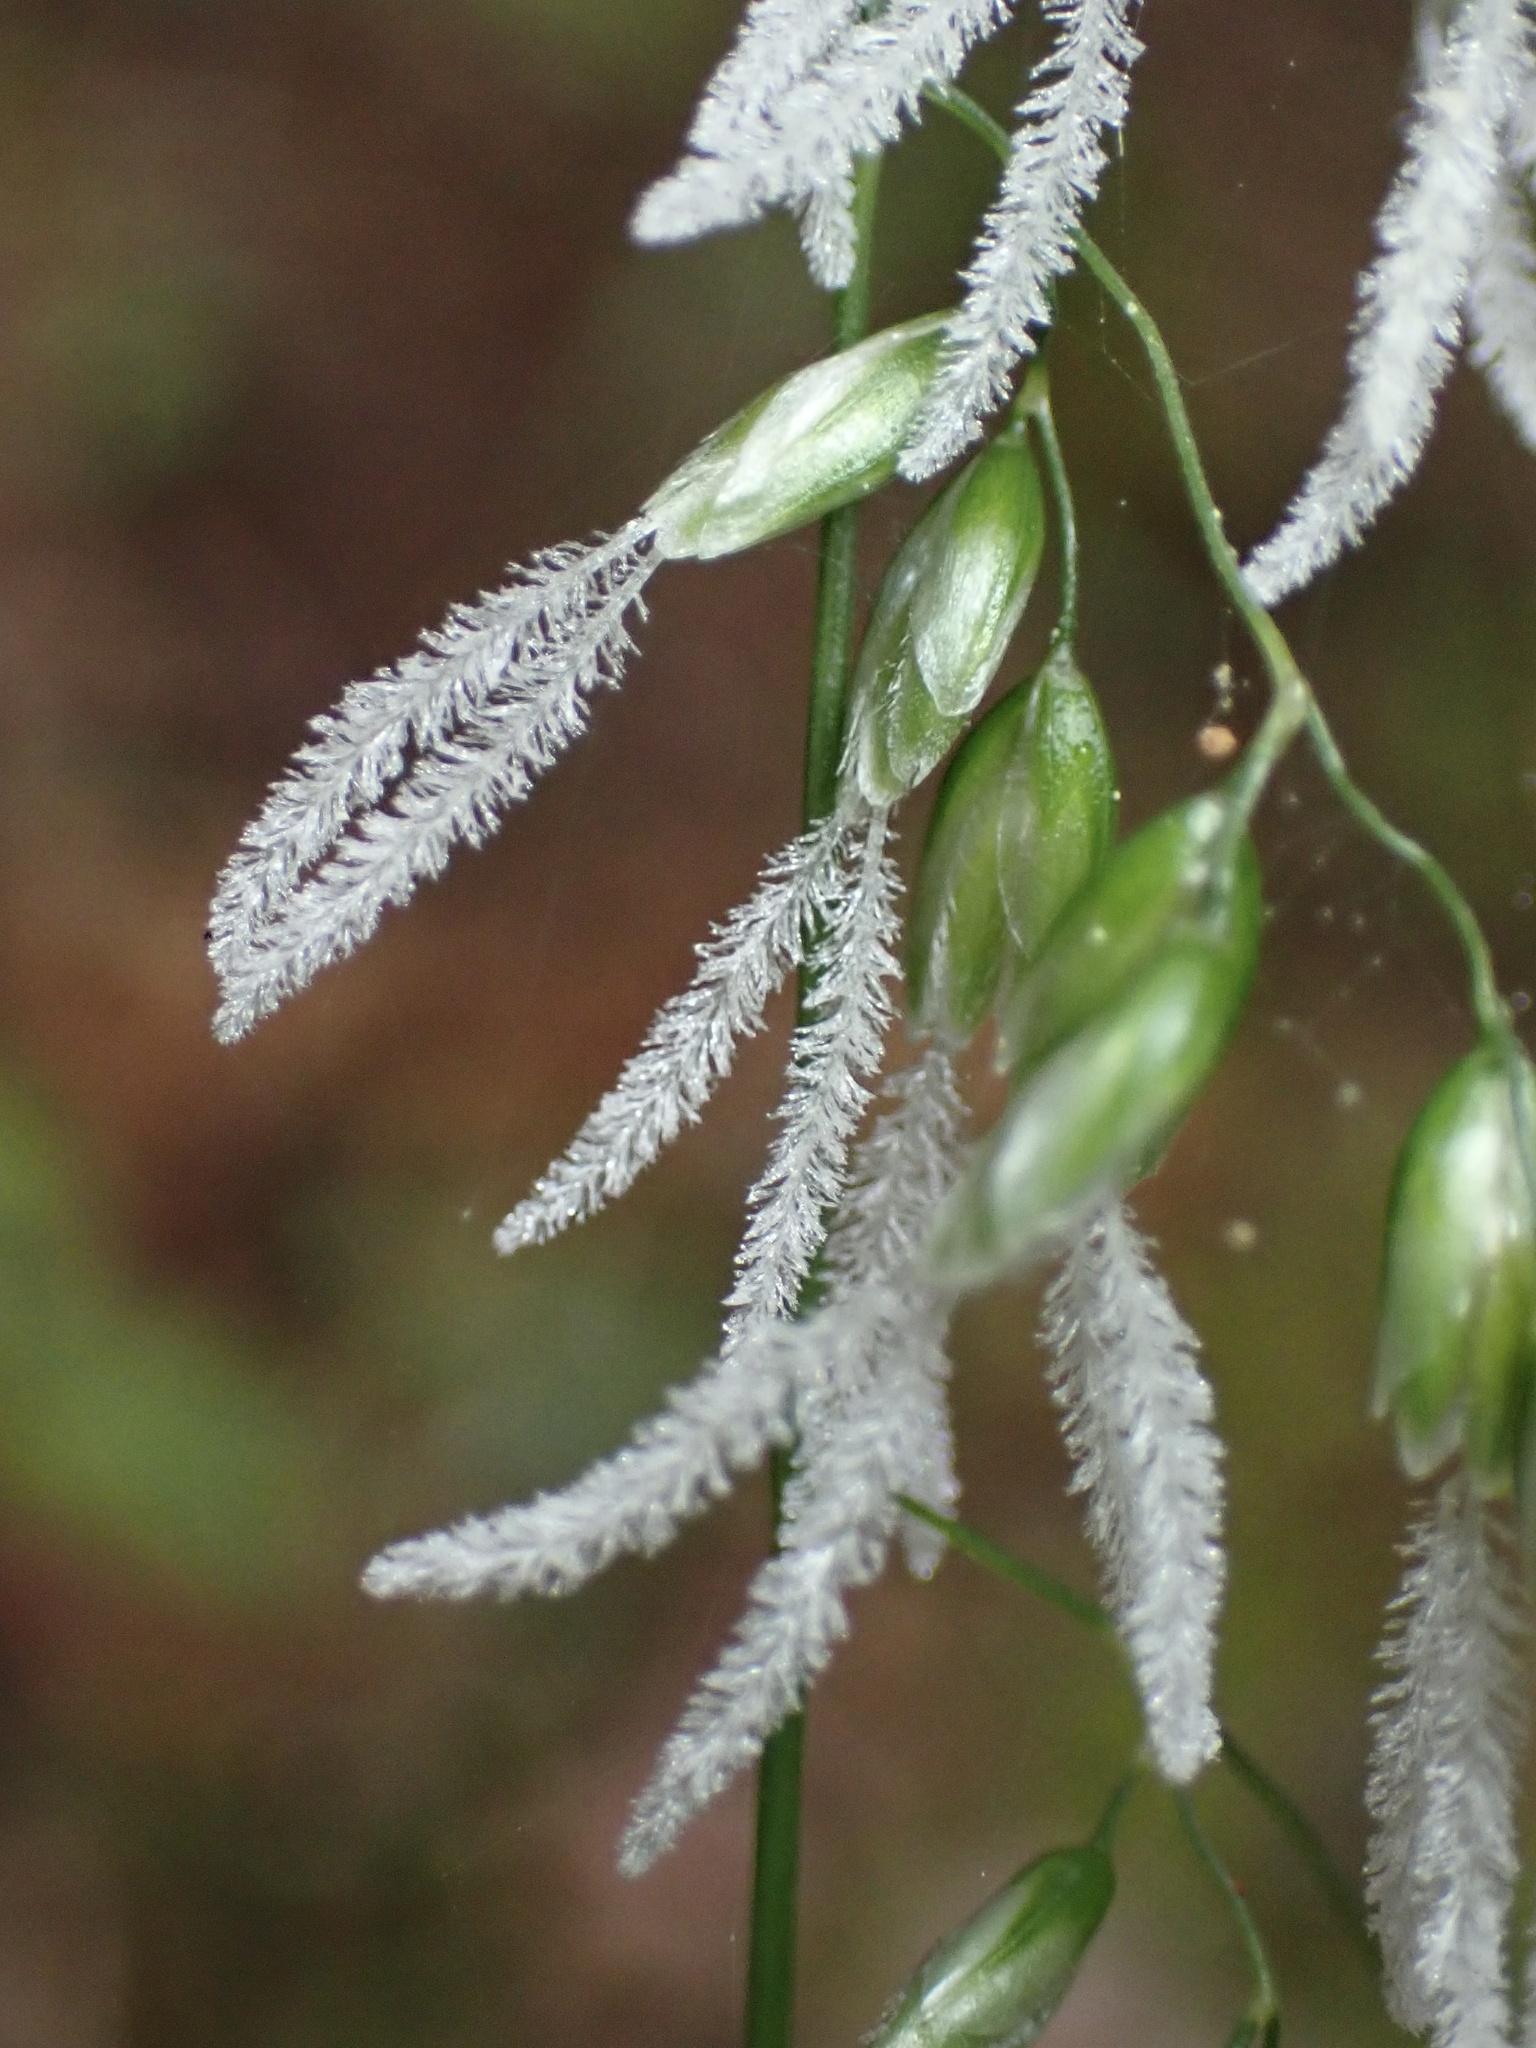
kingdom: Plantae
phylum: Tracheophyta
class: Liliopsida
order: Poales
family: Poaceae
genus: Anthoxanthum
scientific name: Anthoxanthum occidentale
